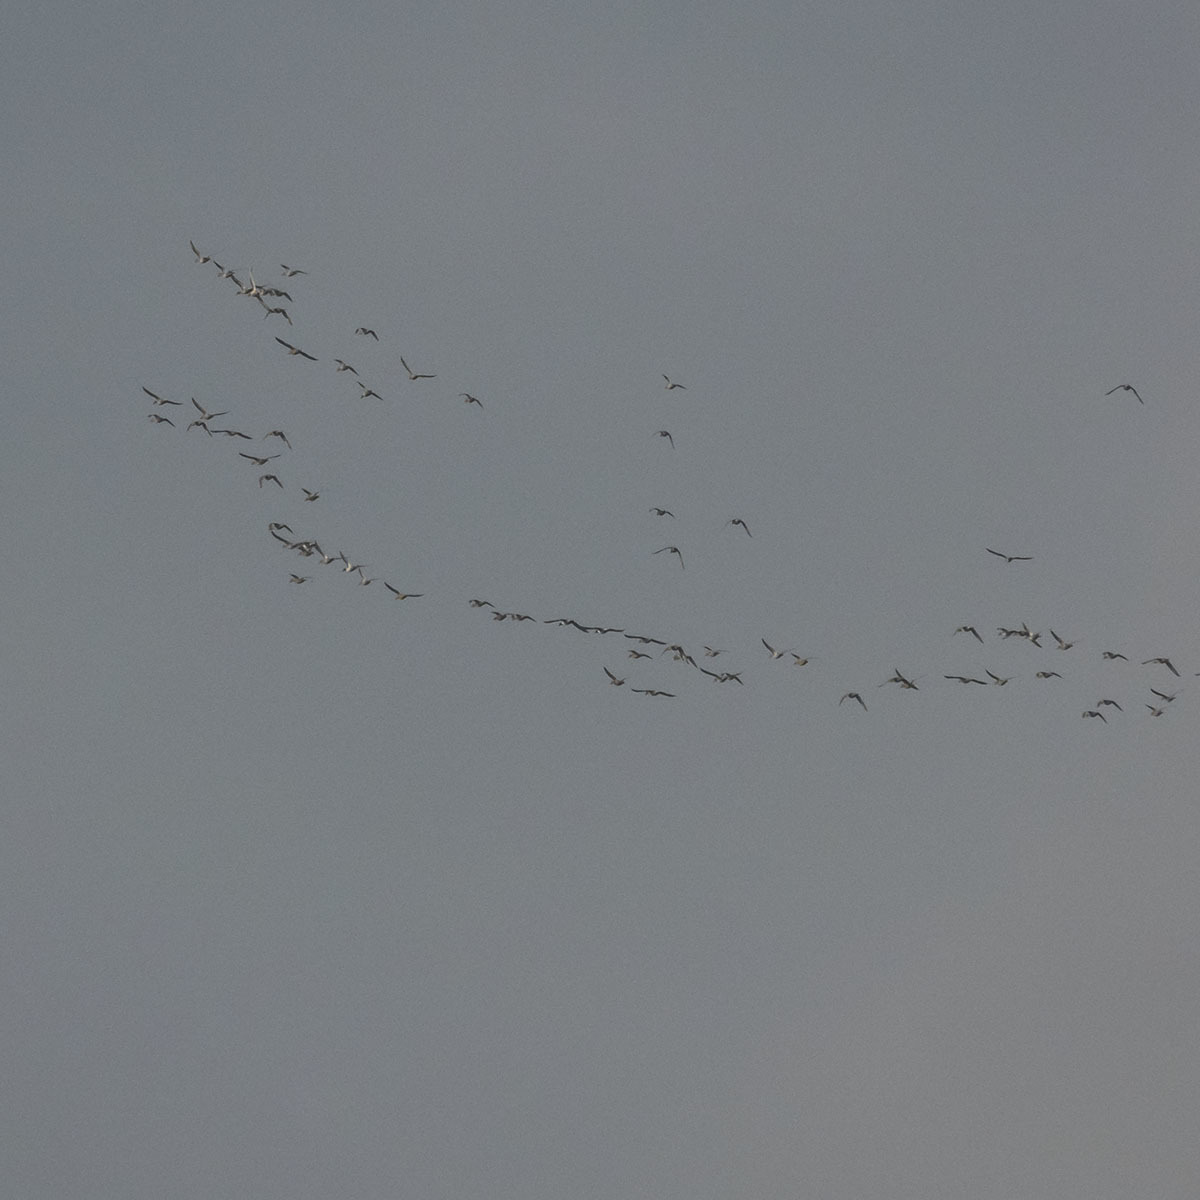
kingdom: Animalia
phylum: Chordata
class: Aves
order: Anseriformes
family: Anatidae
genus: Anas
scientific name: Anas acuta
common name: Northern pintail
